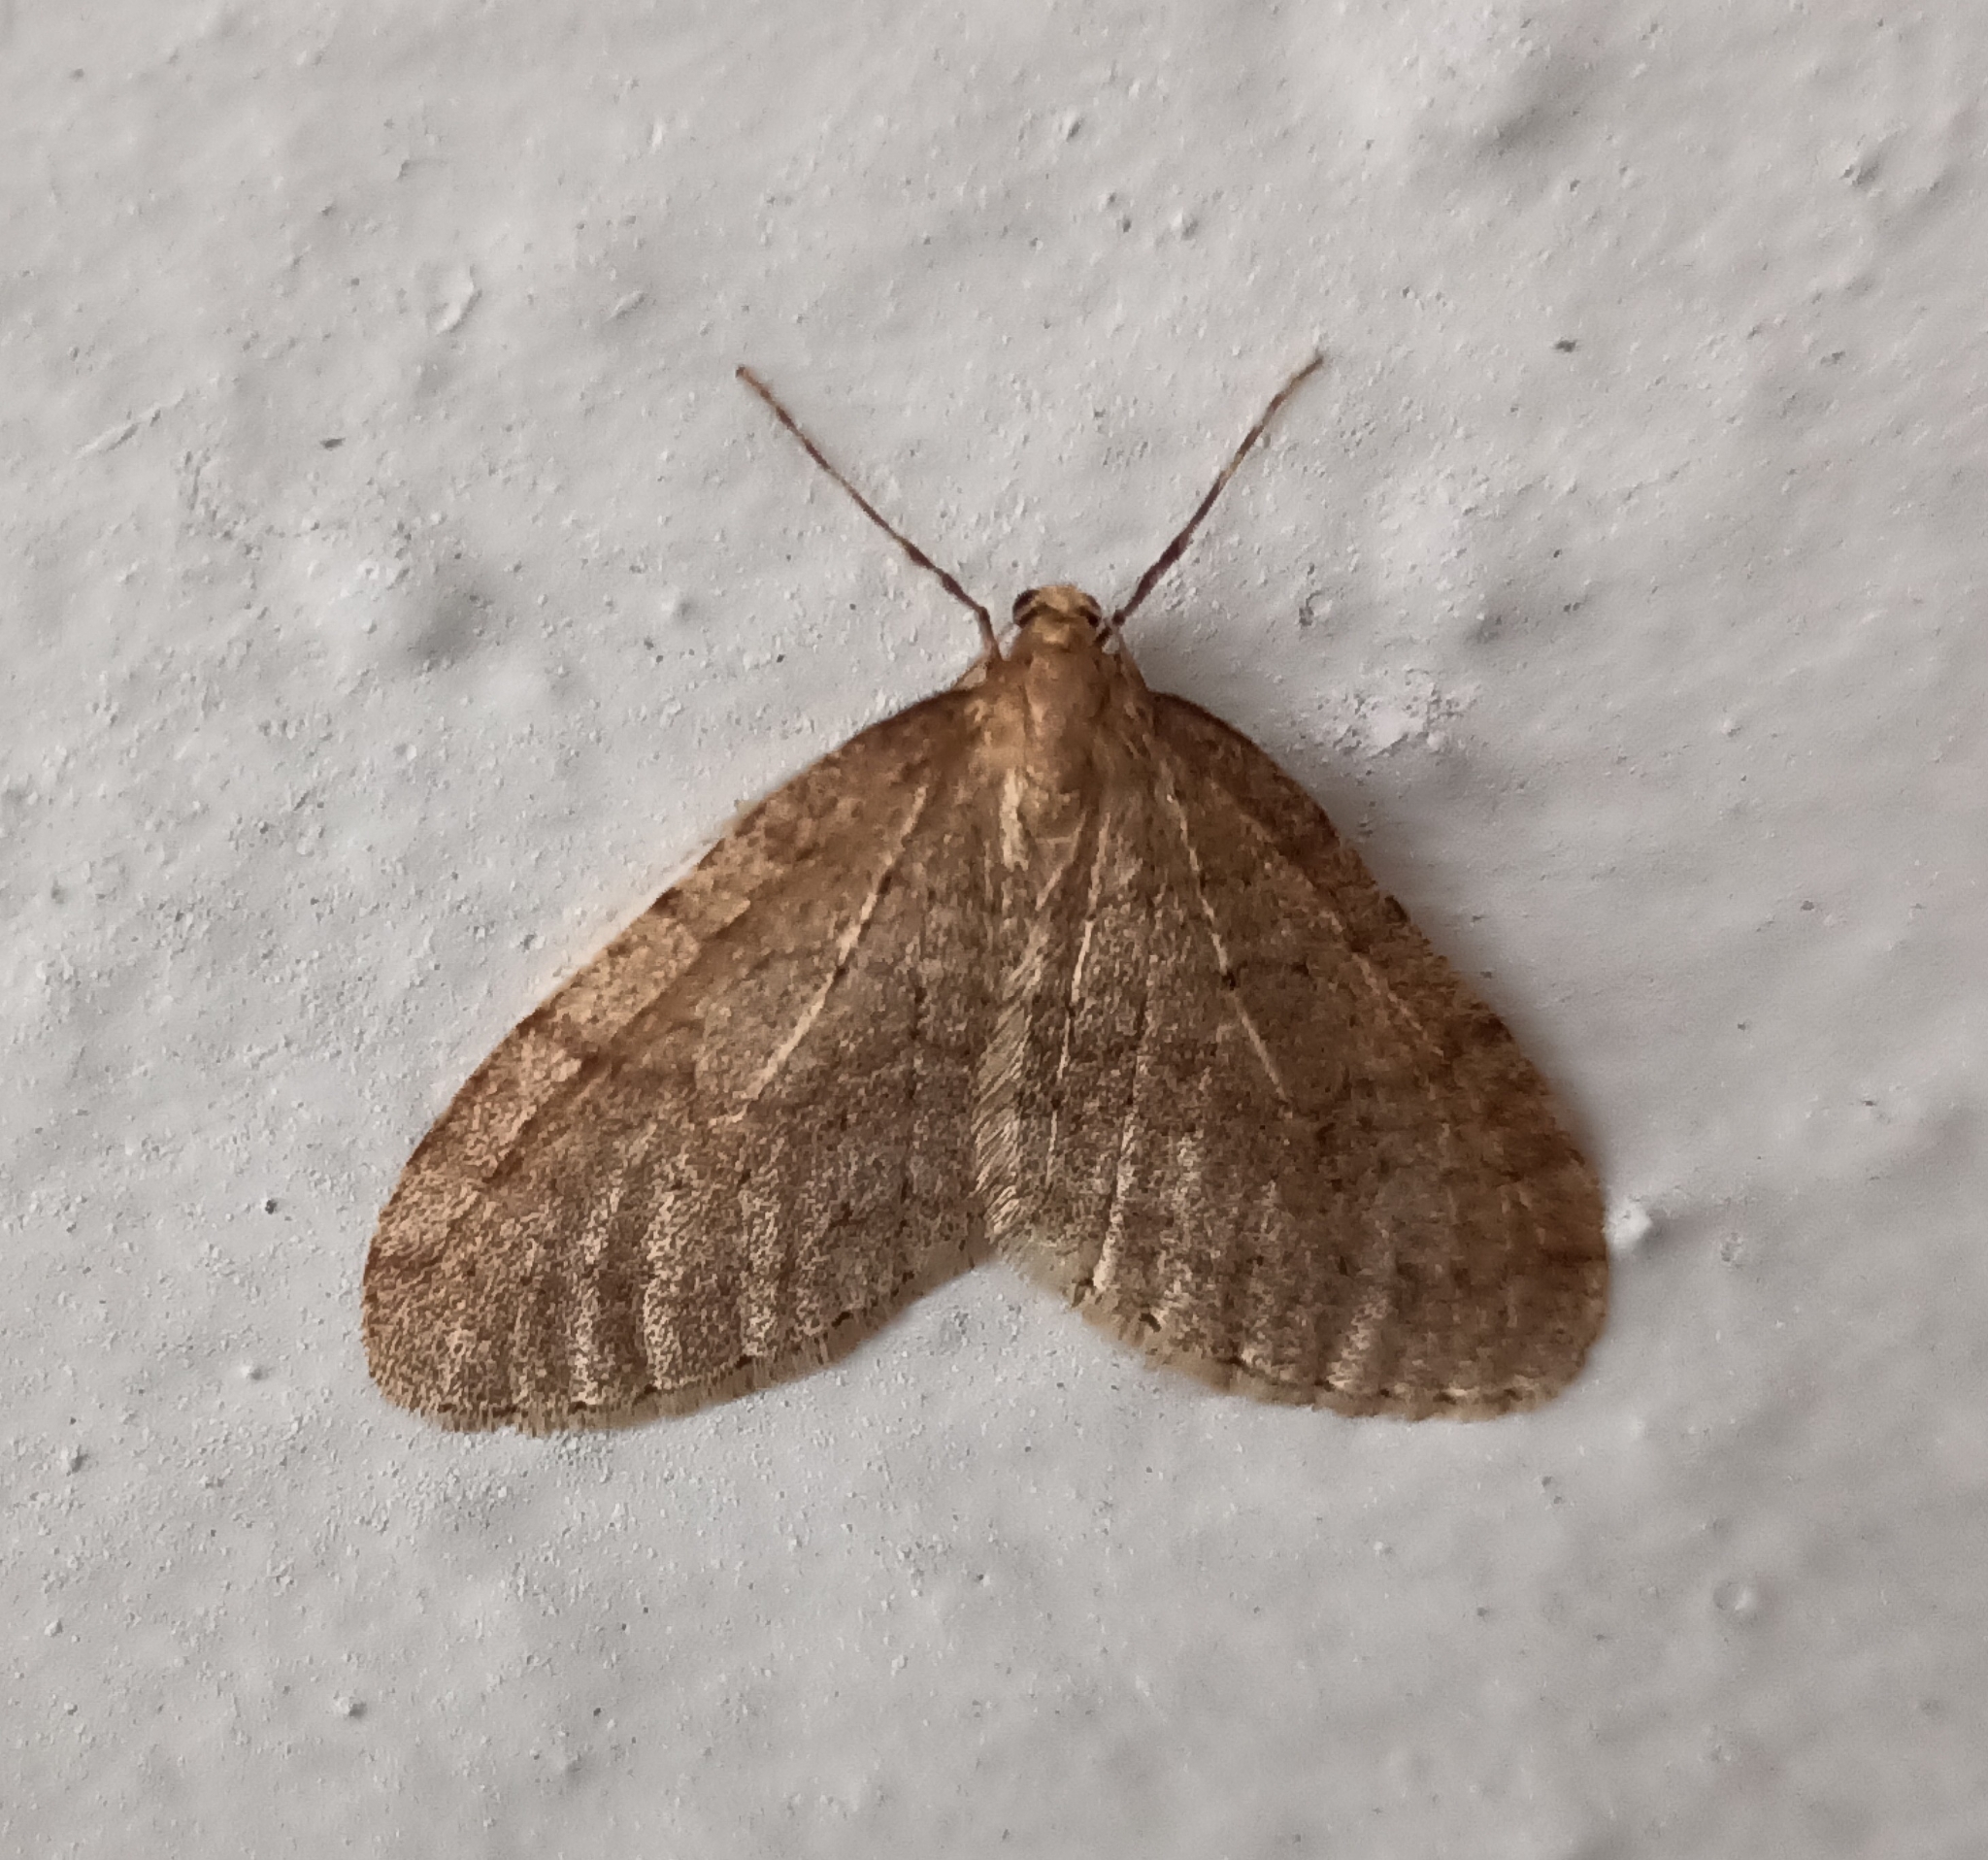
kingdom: Animalia
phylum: Arthropoda
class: Insecta
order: Lepidoptera
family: Geometridae
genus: Operophtera
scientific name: Operophtera brumata
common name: Winter moth
